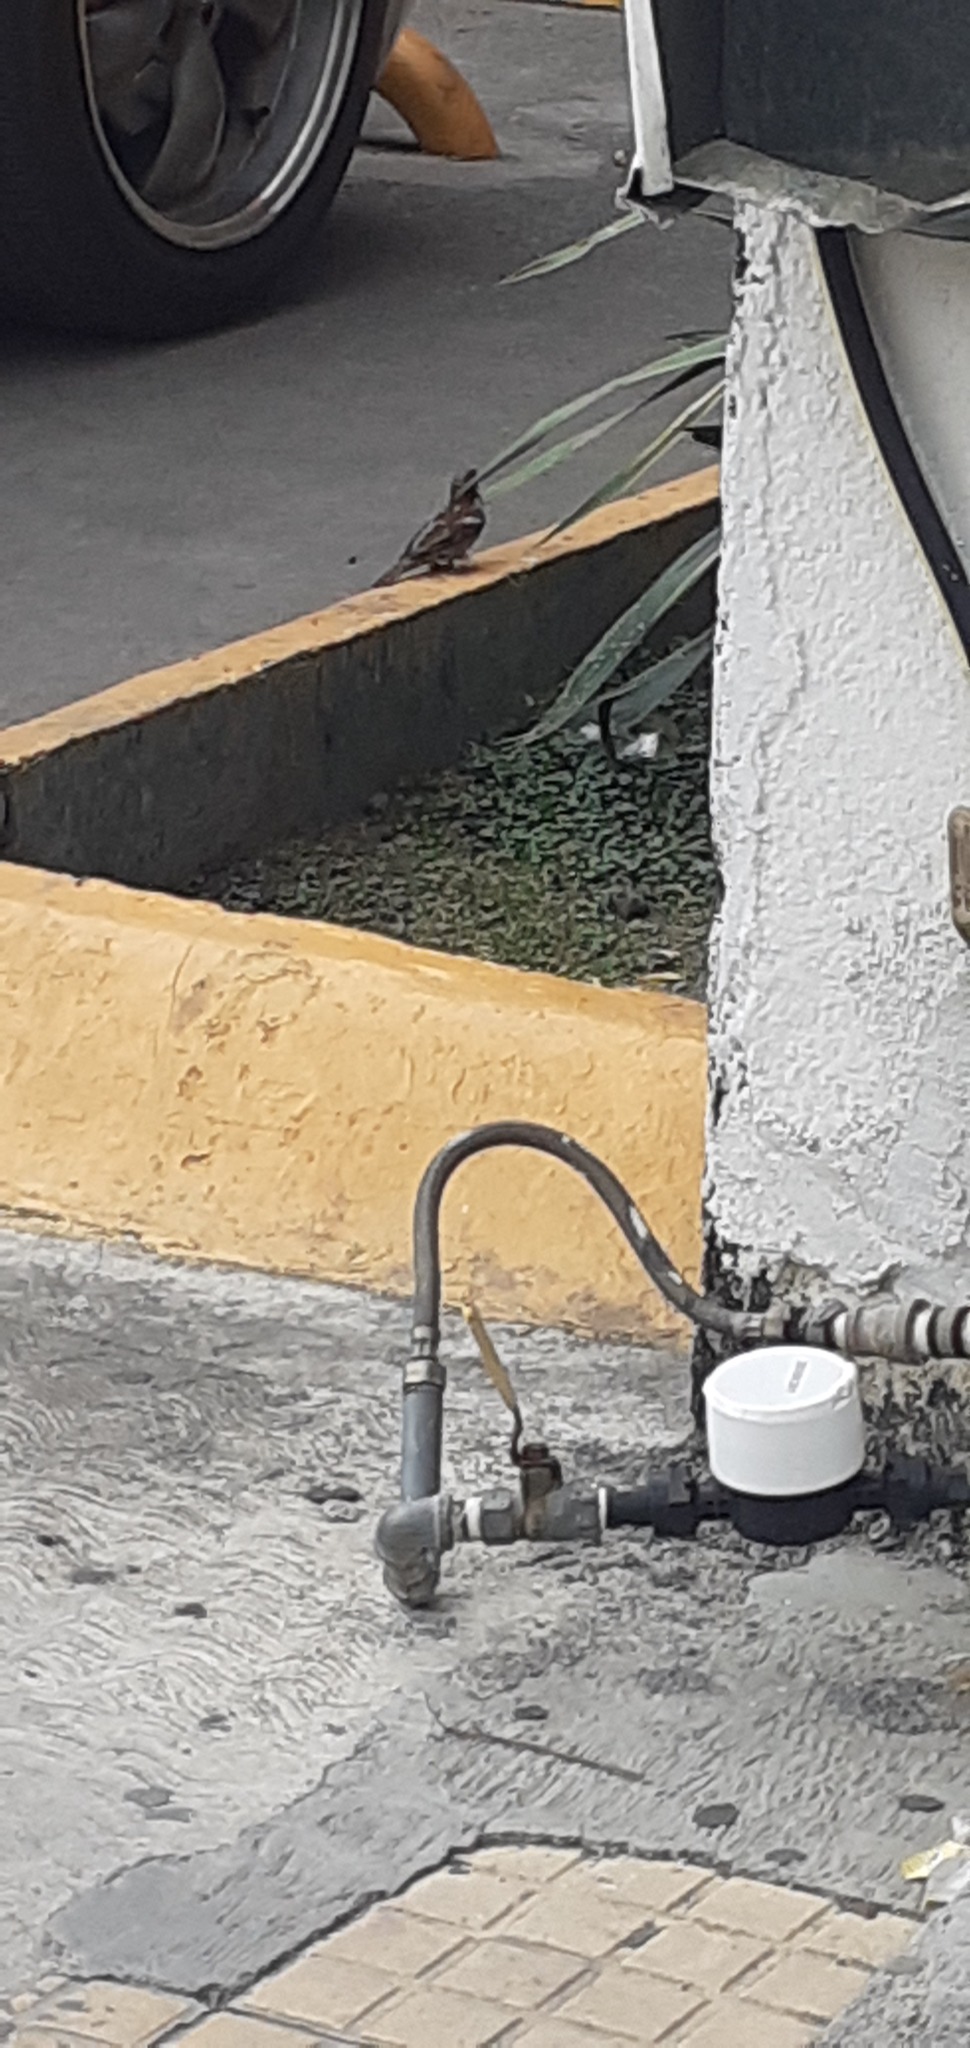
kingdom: Animalia
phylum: Chordata
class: Aves
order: Passeriformes
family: Passeridae
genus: Passer
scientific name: Passer domesticus
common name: House sparrow
